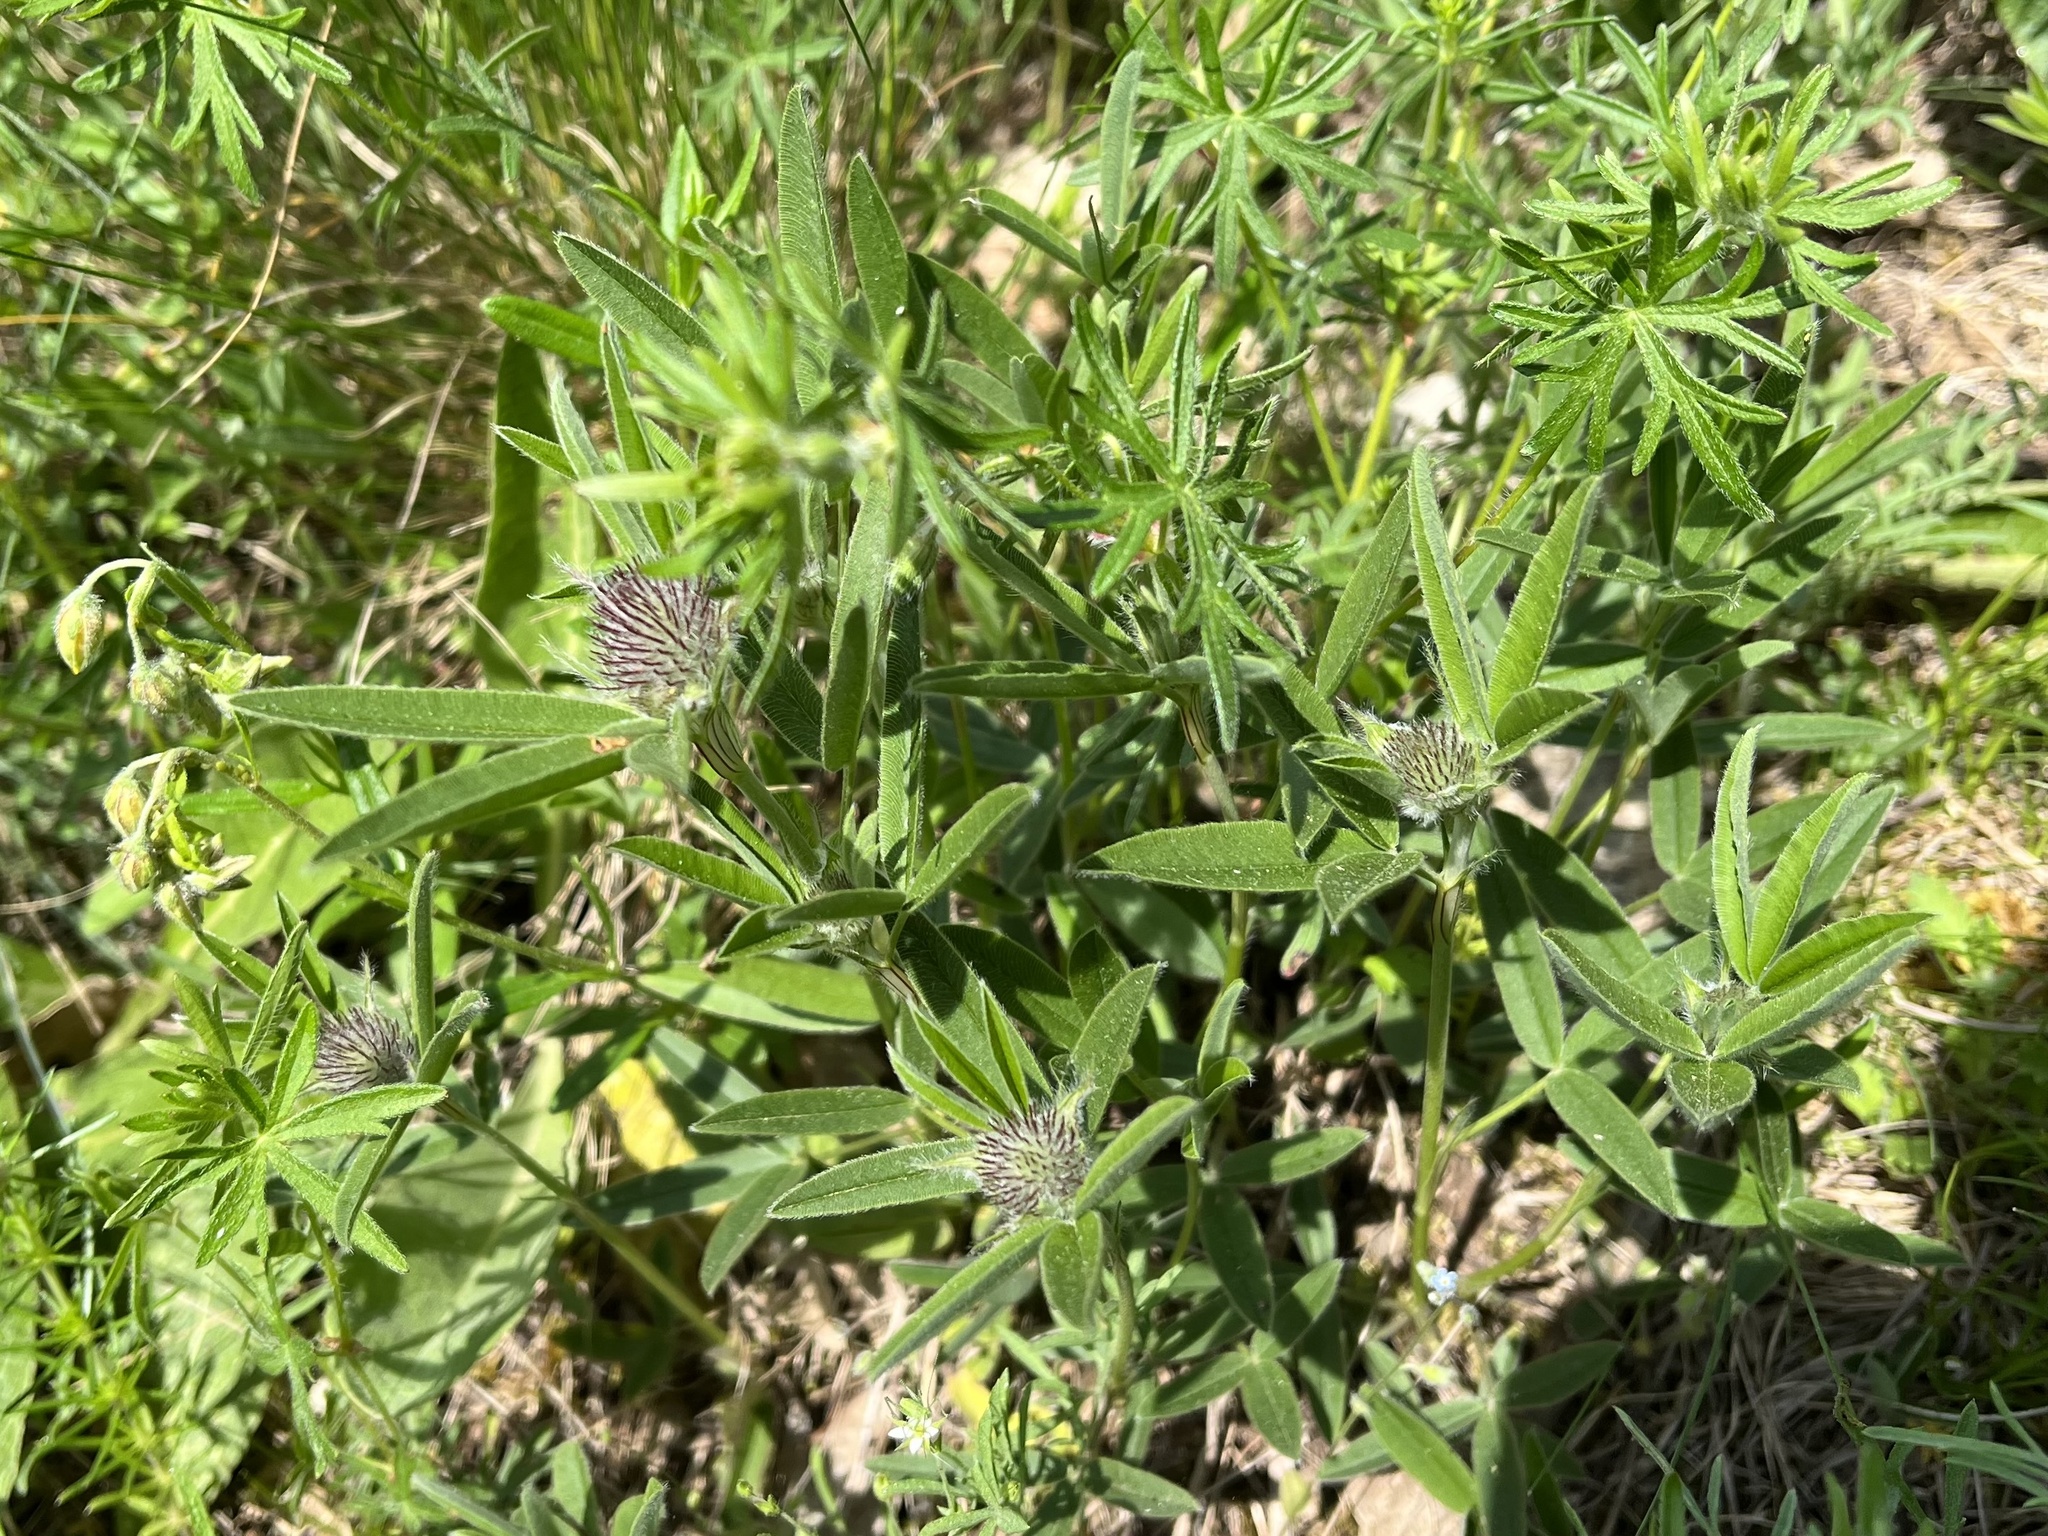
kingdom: Plantae
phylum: Tracheophyta
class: Magnoliopsida
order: Fabales
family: Fabaceae
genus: Trifolium
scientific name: Trifolium alpestre
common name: Owl-head clover
